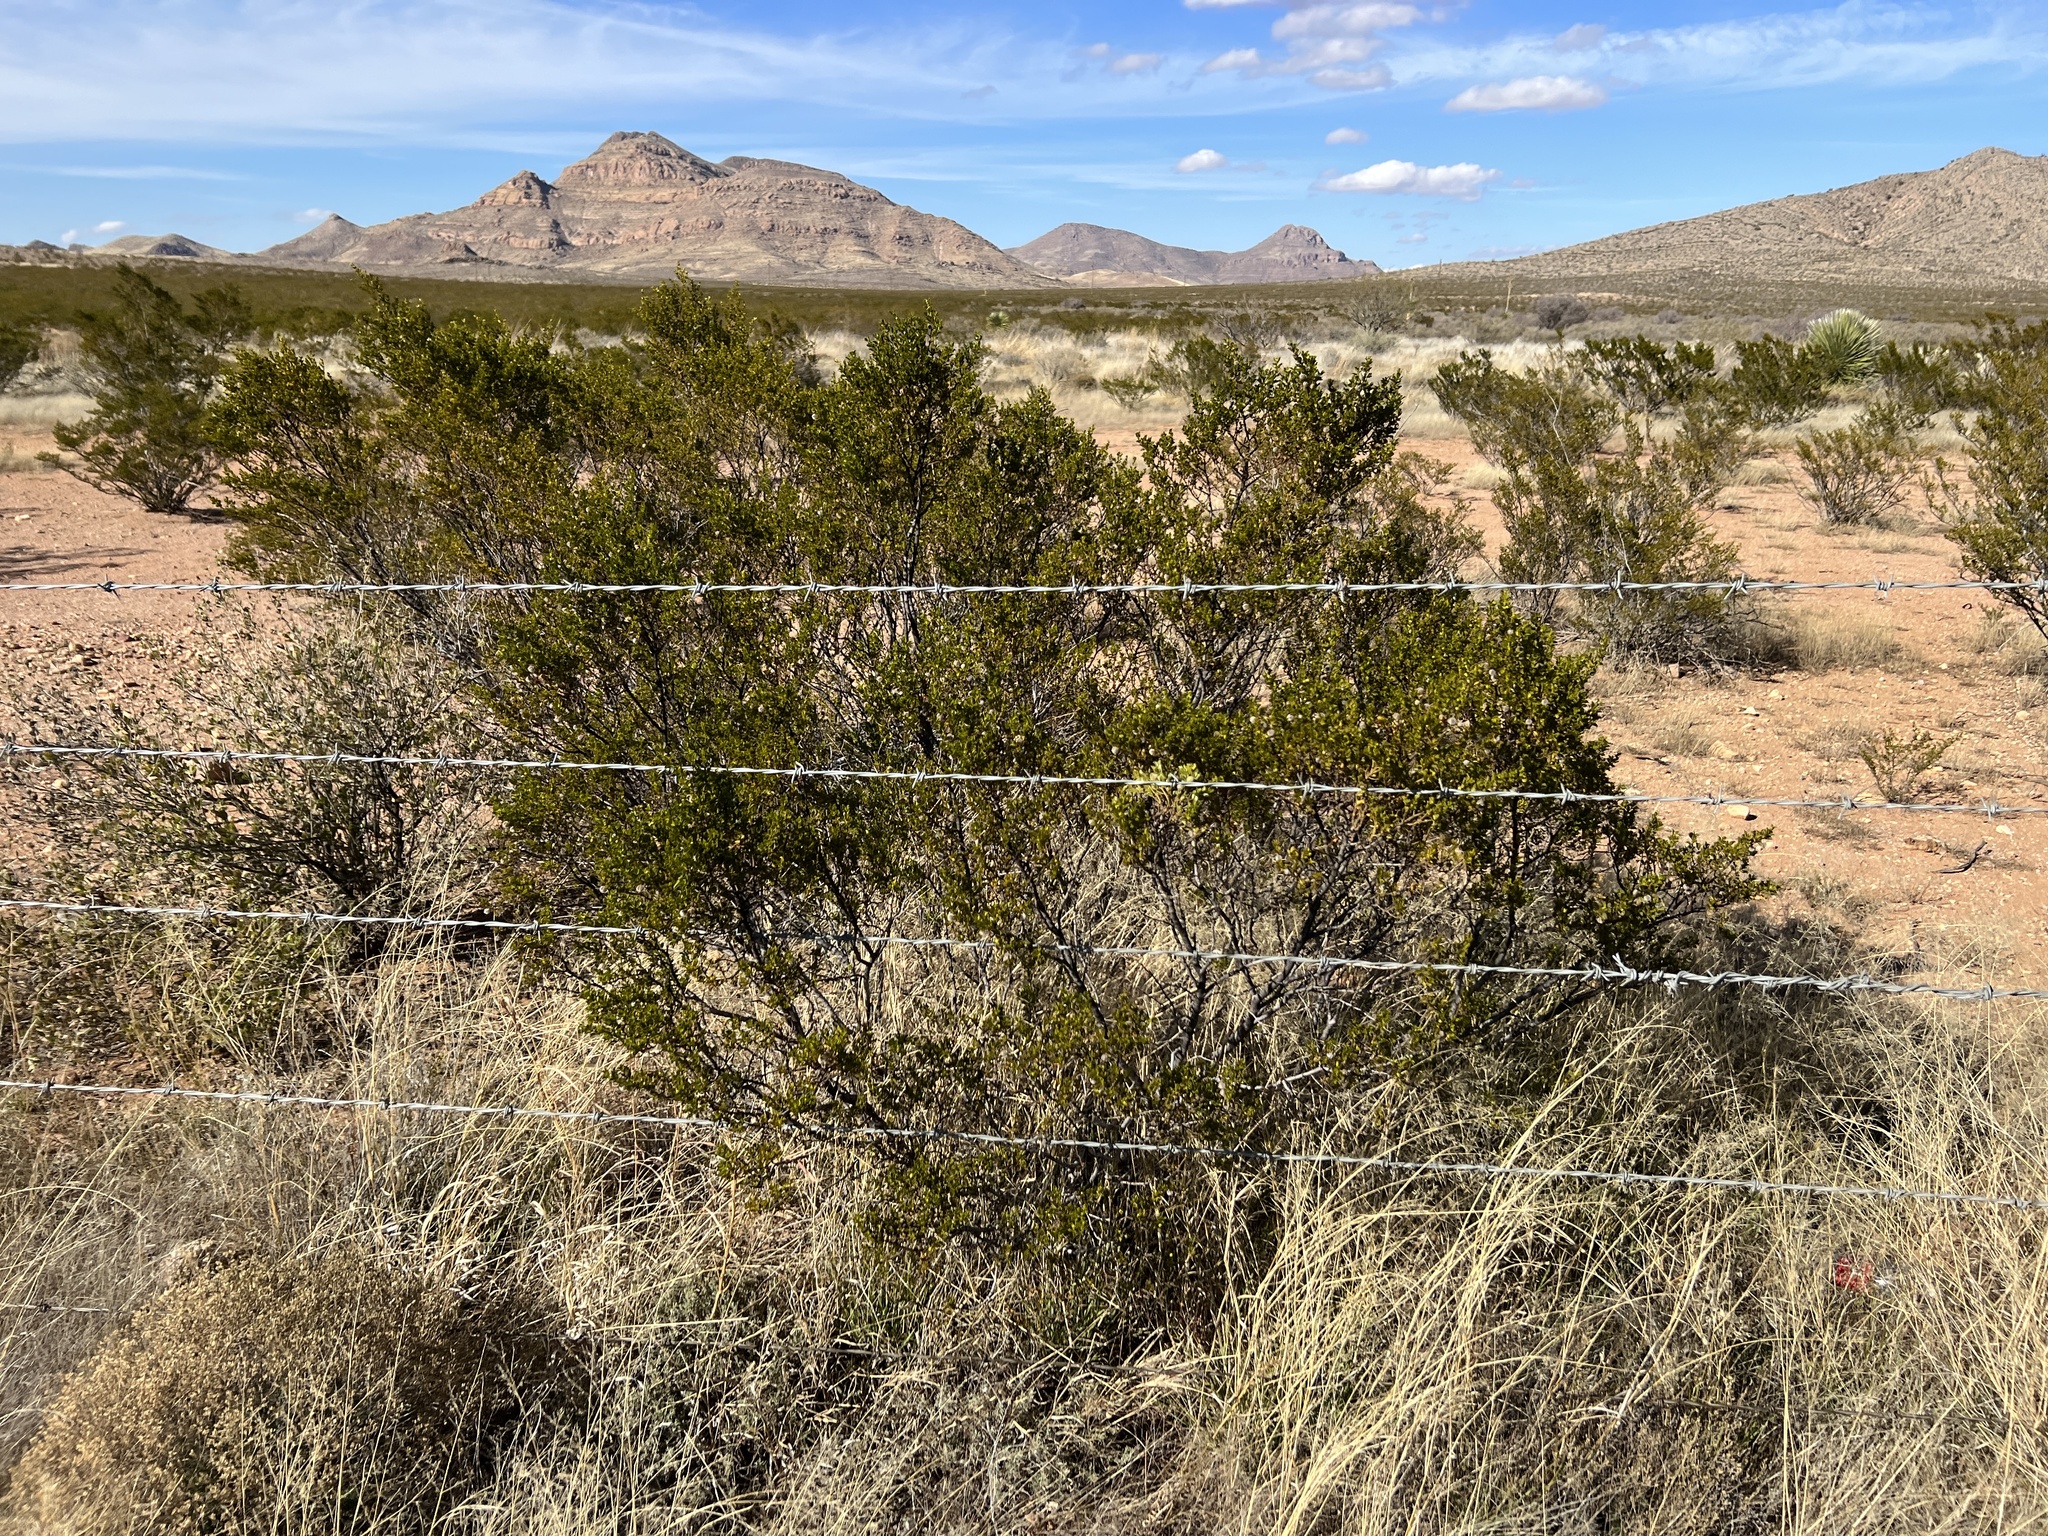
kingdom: Plantae
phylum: Tracheophyta
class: Magnoliopsida
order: Zygophyllales
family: Zygophyllaceae
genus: Larrea
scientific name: Larrea tridentata
